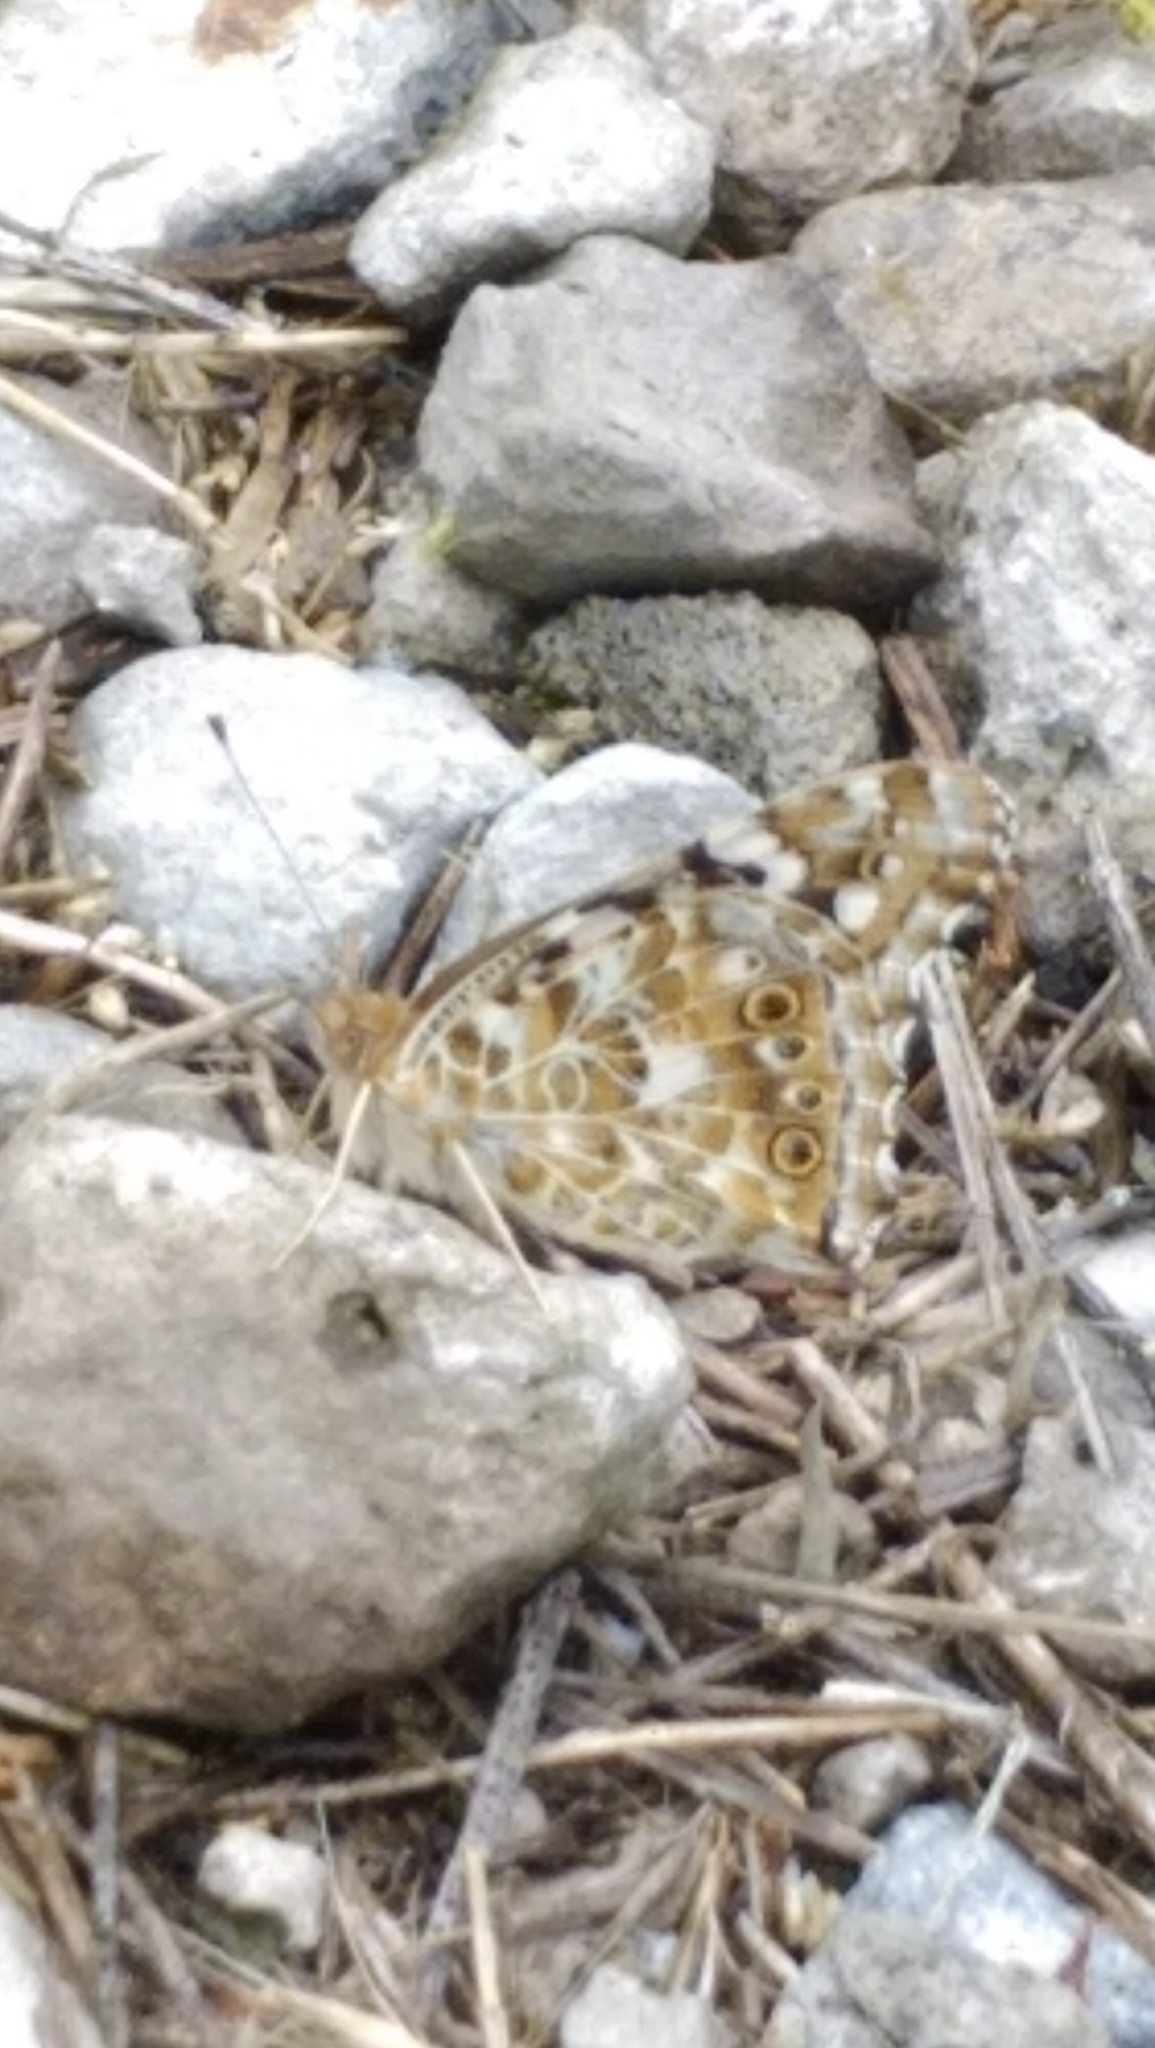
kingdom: Animalia
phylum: Arthropoda
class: Insecta
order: Lepidoptera
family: Nymphalidae
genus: Vanessa
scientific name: Vanessa cardui
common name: Painted lady
